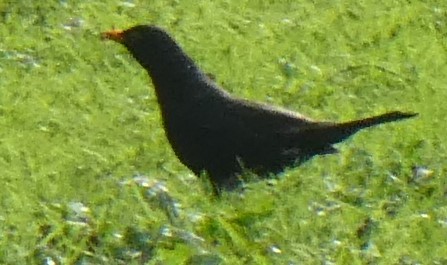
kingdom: Animalia
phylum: Chordata
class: Aves
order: Passeriformes
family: Turdidae
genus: Turdus
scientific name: Turdus merula
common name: Common blackbird
